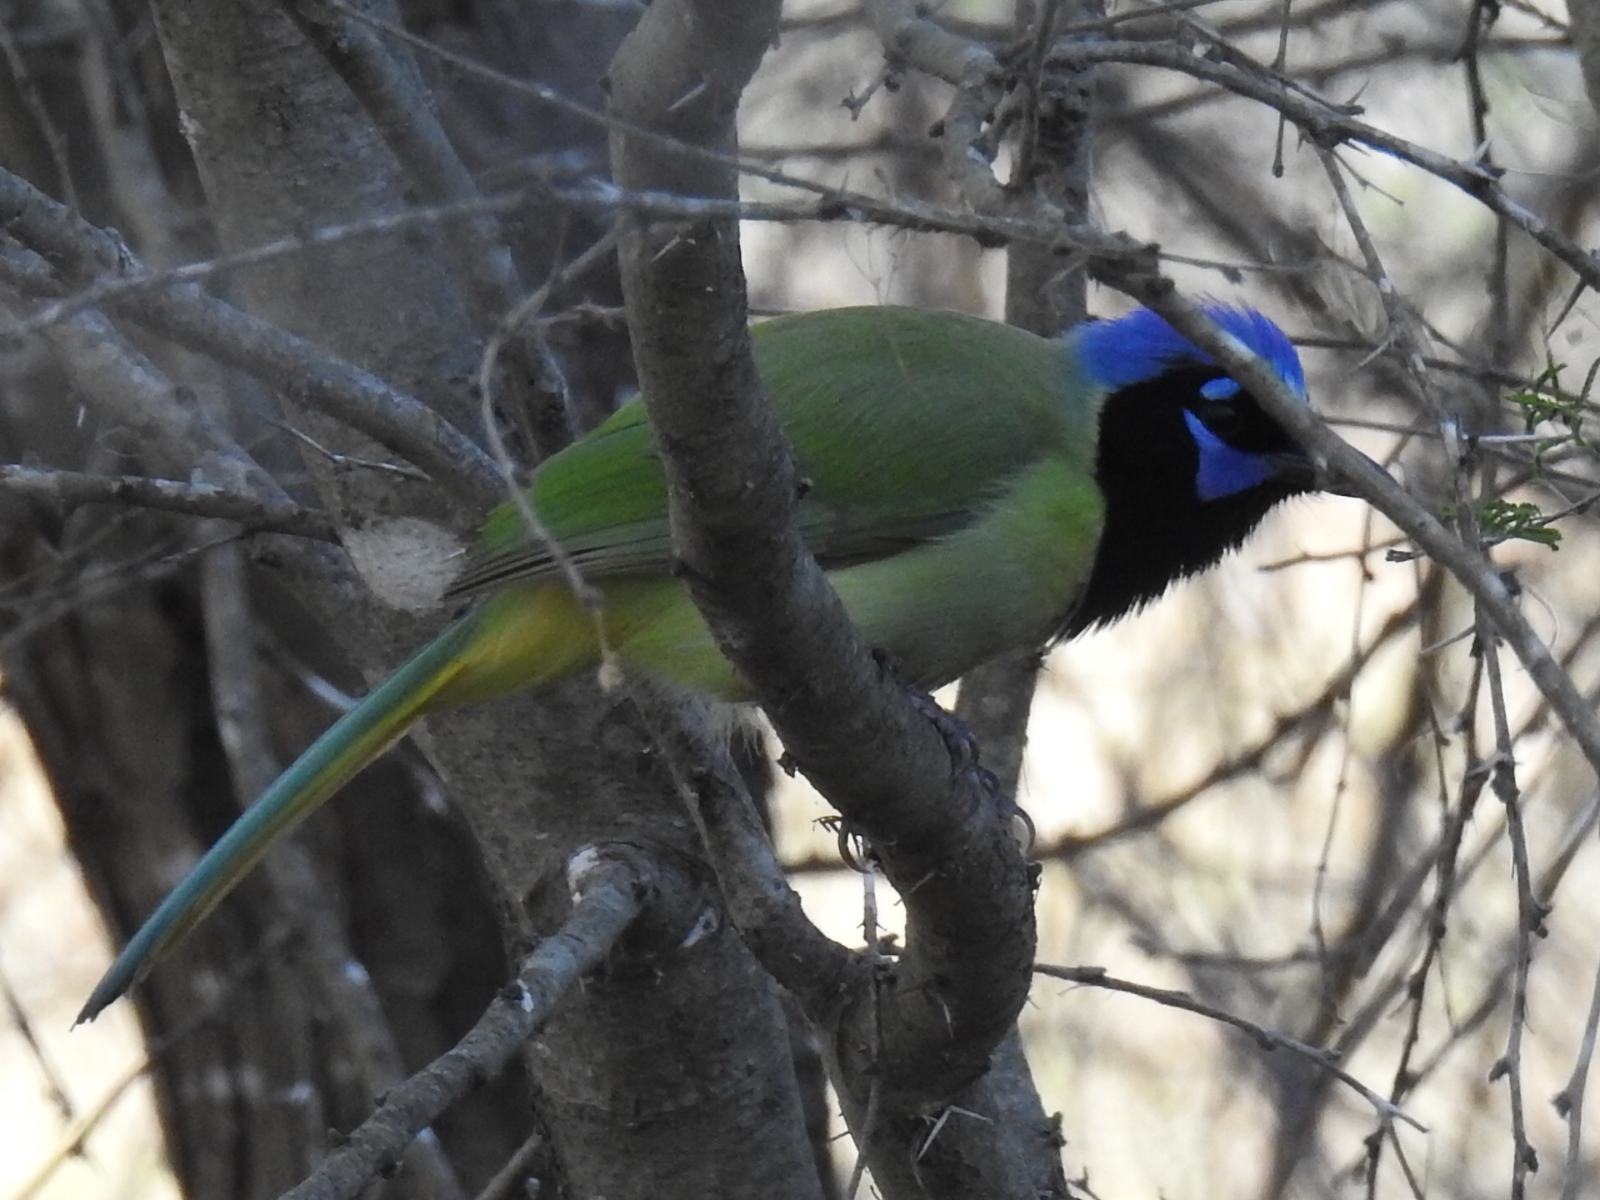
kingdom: Animalia
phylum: Chordata
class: Aves
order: Passeriformes
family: Corvidae
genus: Cyanocorax
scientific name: Cyanocorax yncas
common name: Green jay
